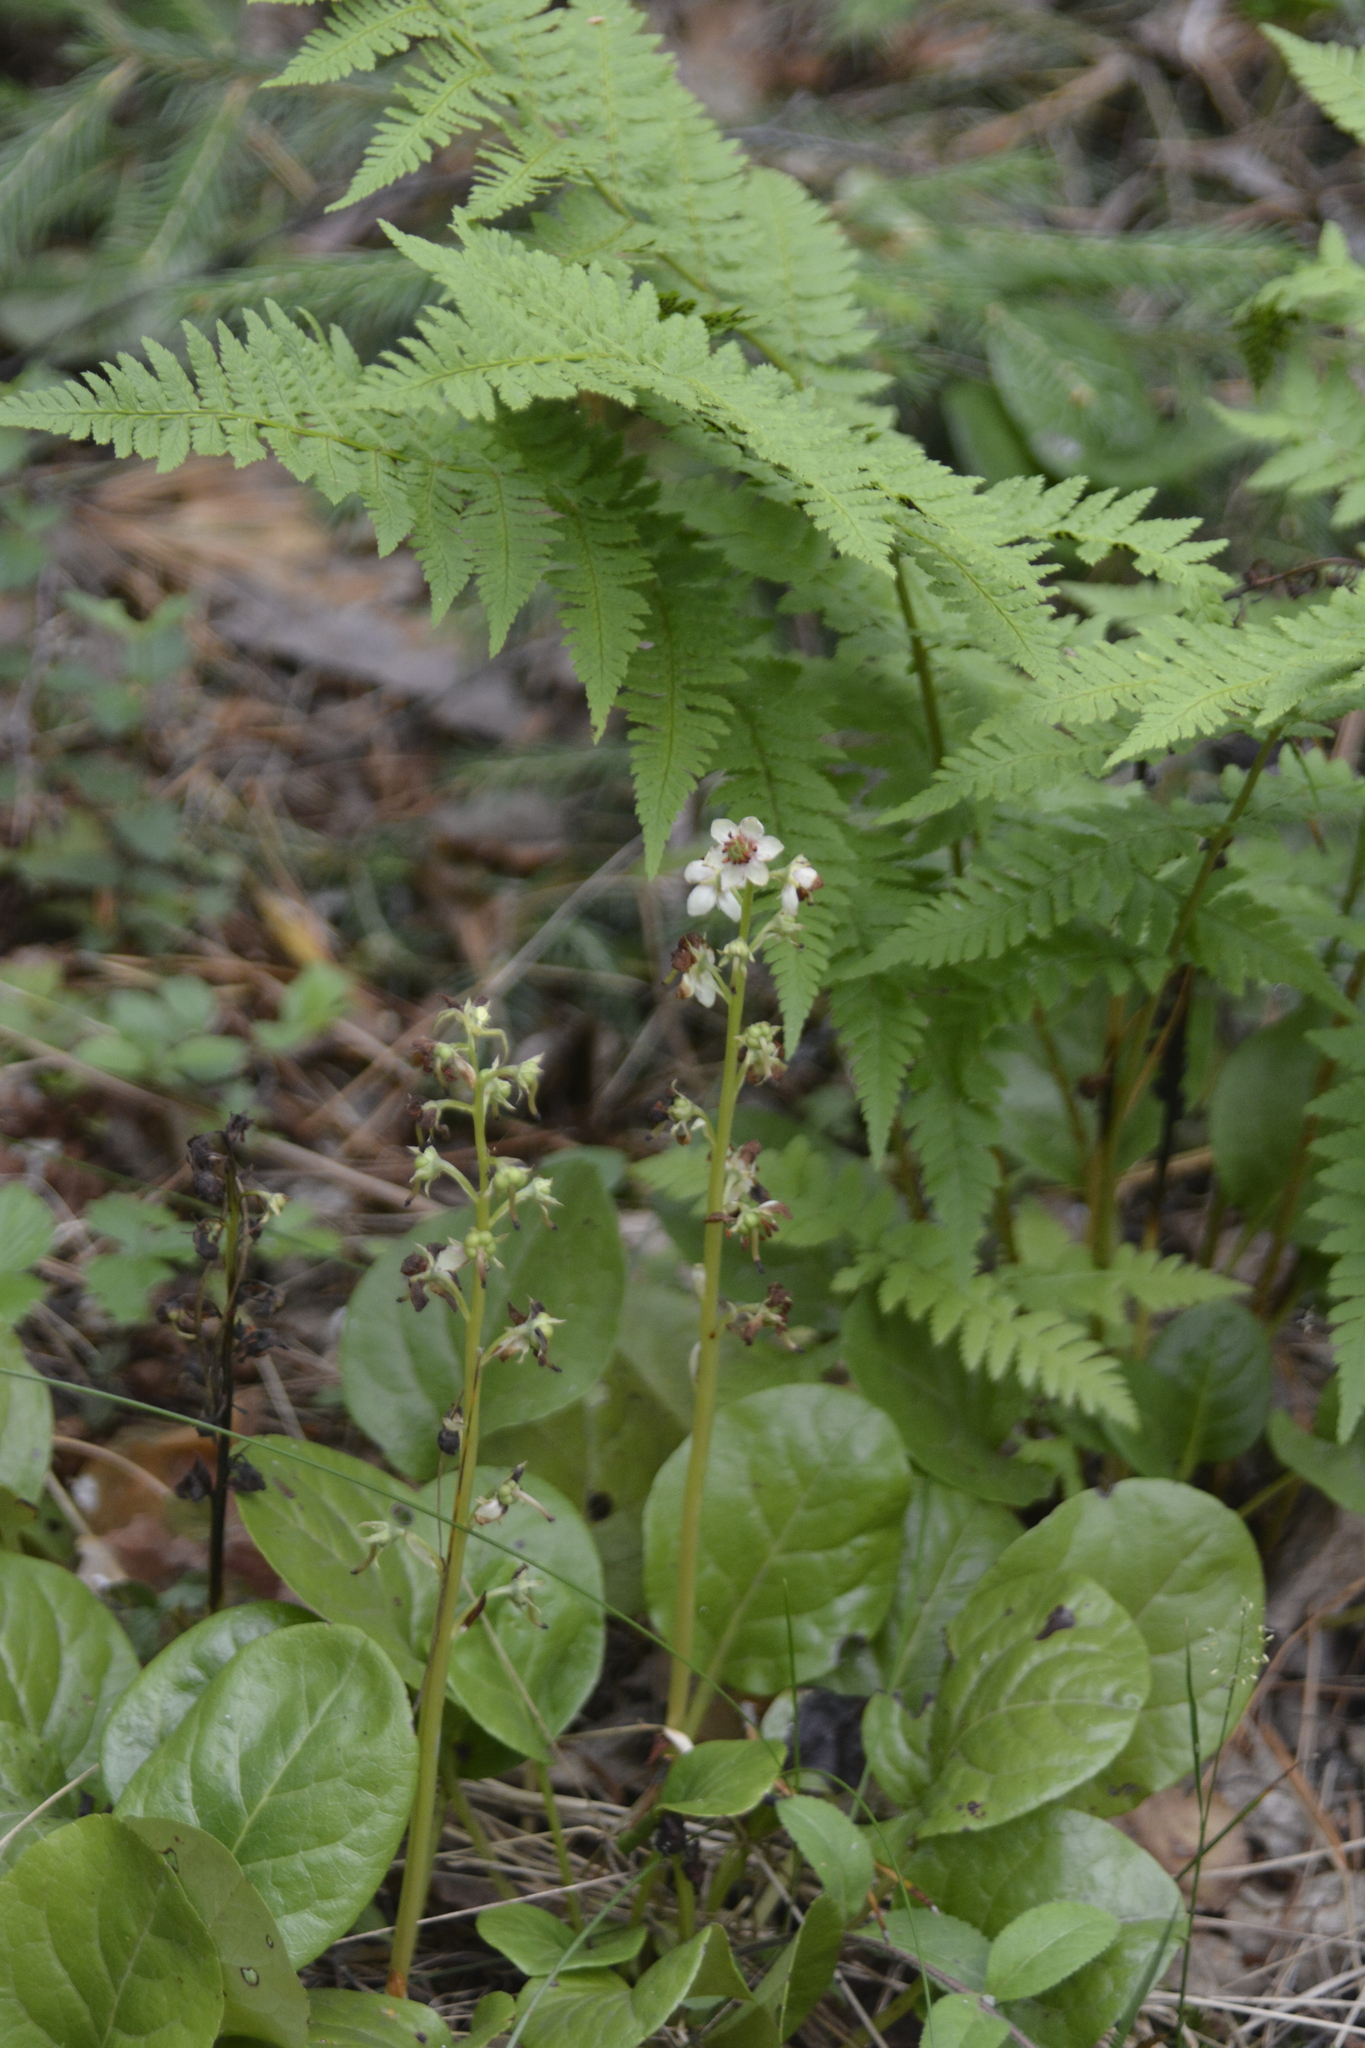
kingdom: Plantae
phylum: Tracheophyta
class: Magnoliopsida
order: Ericales
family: Ericaceae
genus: Pyrola
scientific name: Pyrola rotundifolia
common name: Round-leaved wintergreen
